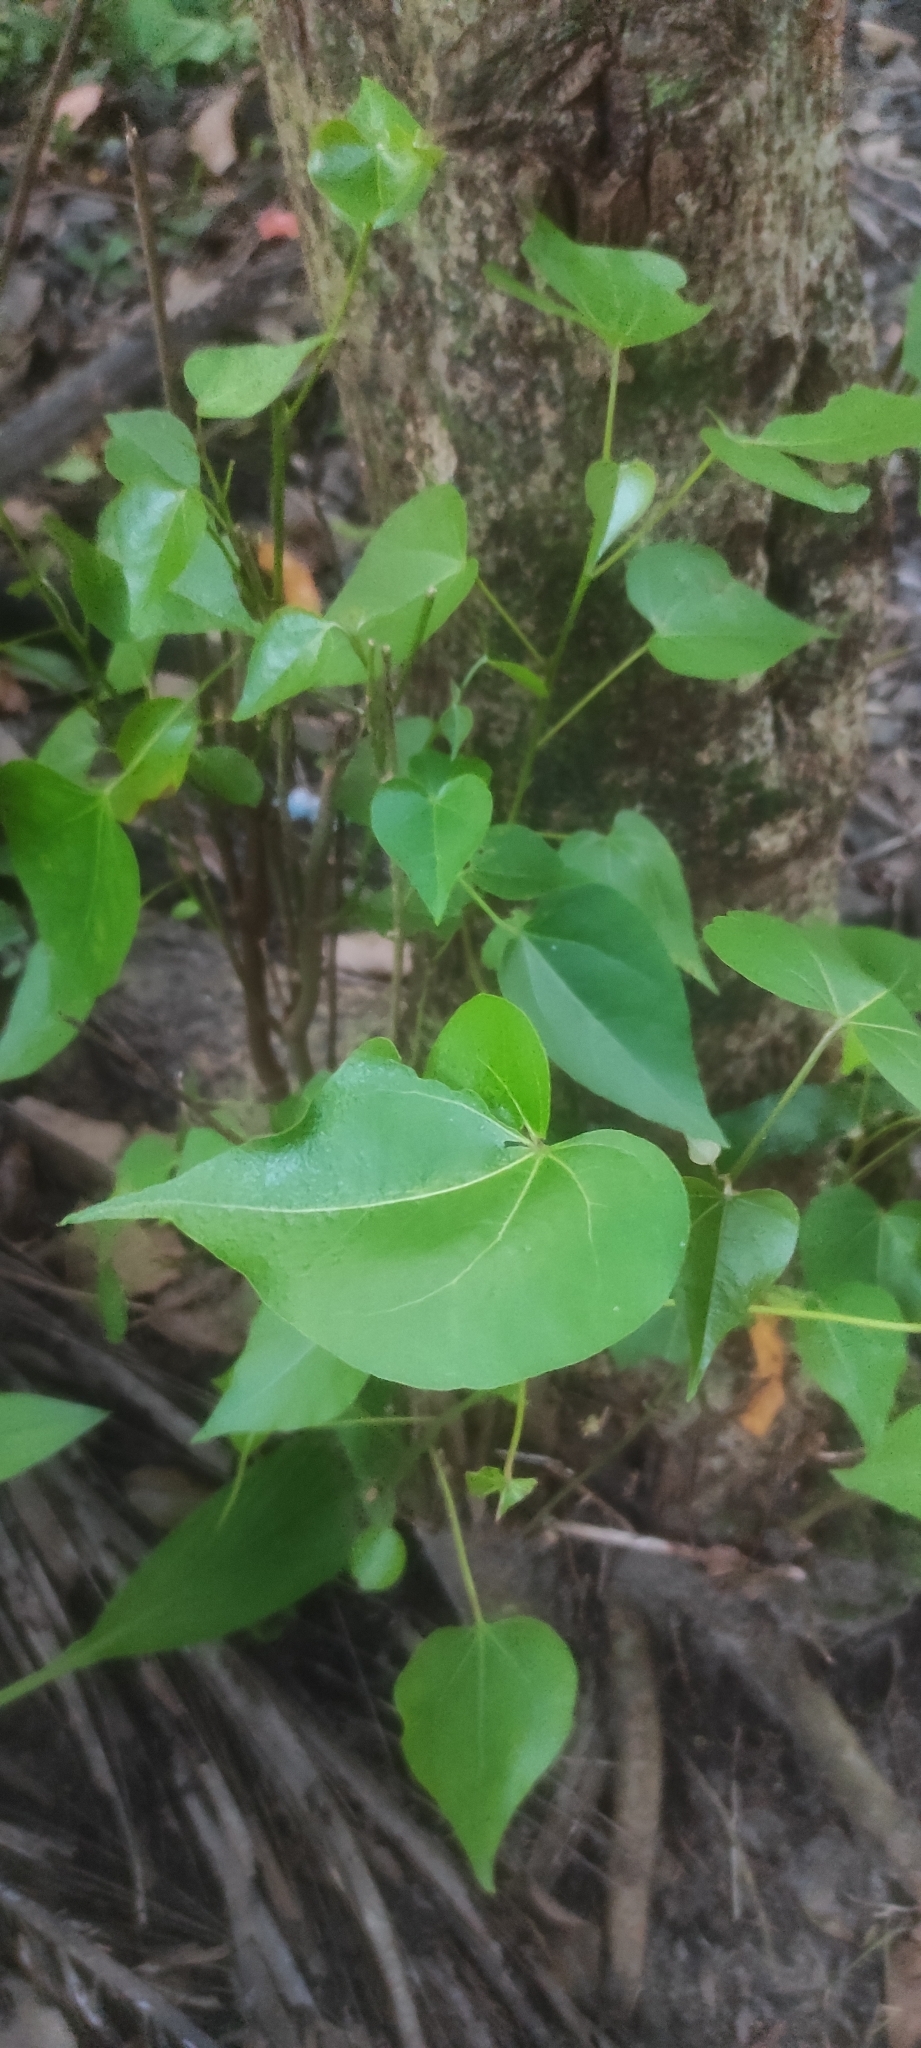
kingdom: Plantae
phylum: Tracheophyta
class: Magnoliopsida
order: Malvales
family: Malvaceae
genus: Thespesia
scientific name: Thespesia populnea
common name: Seaside mahoe
